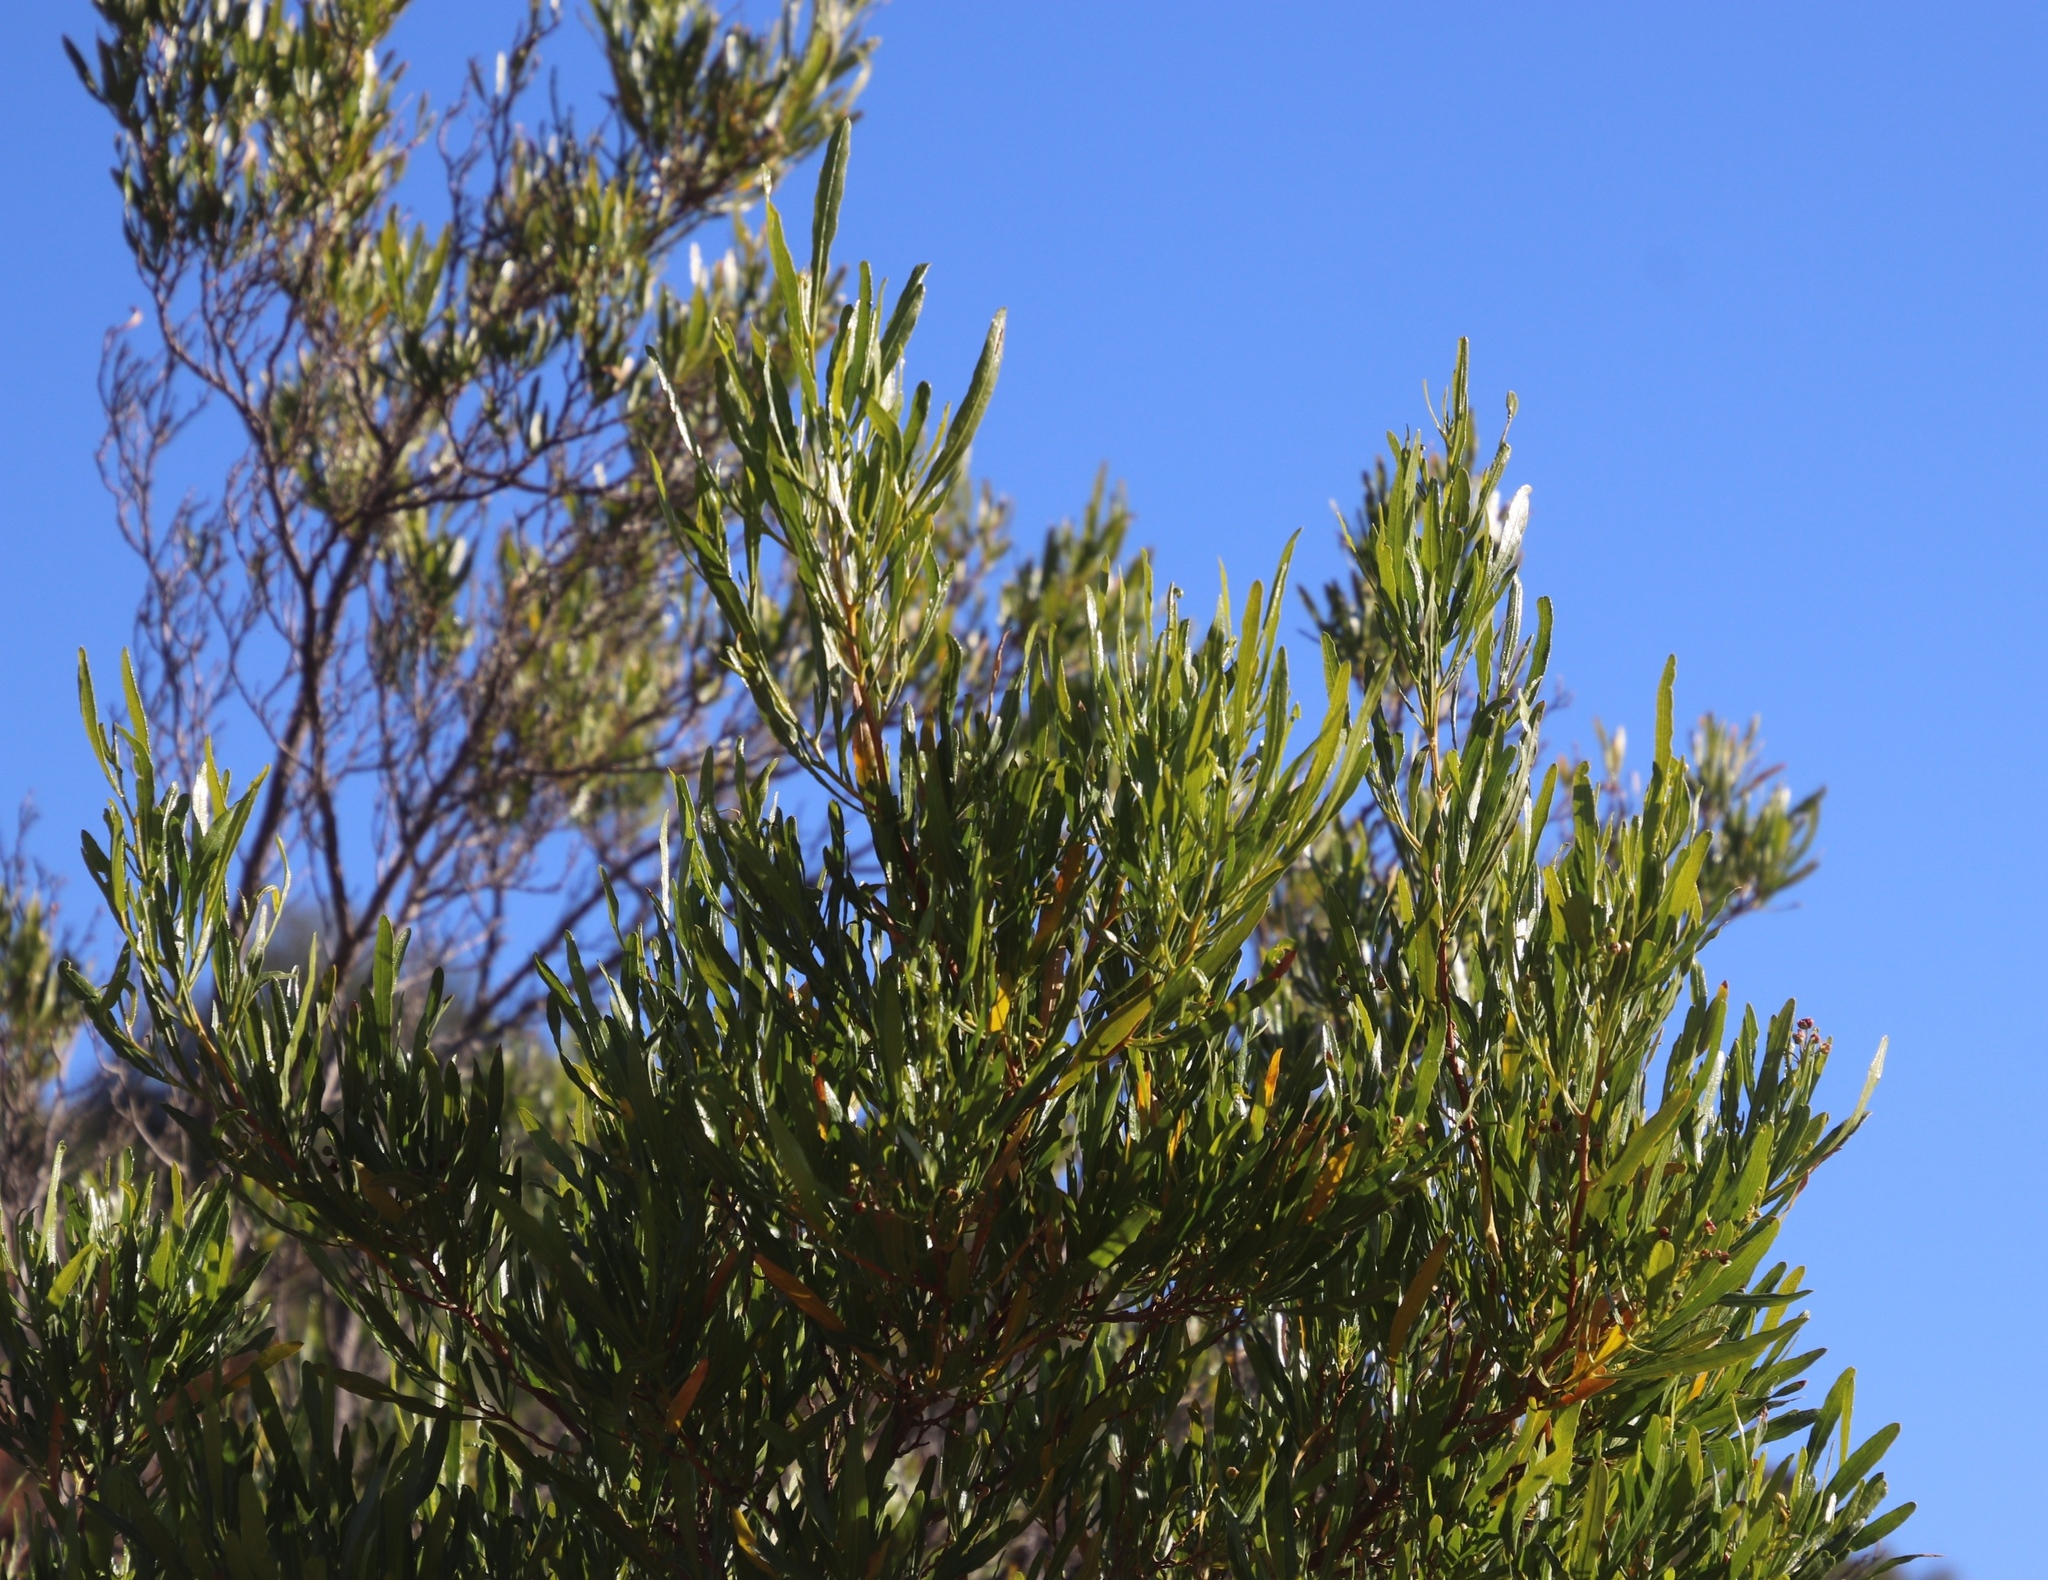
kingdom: Plantae
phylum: Tracheophyta
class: Magnoliopsida
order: Sapindales
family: Sapindaceae
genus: Dodonaea
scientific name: Dodonaea viscosa
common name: Hopbush
